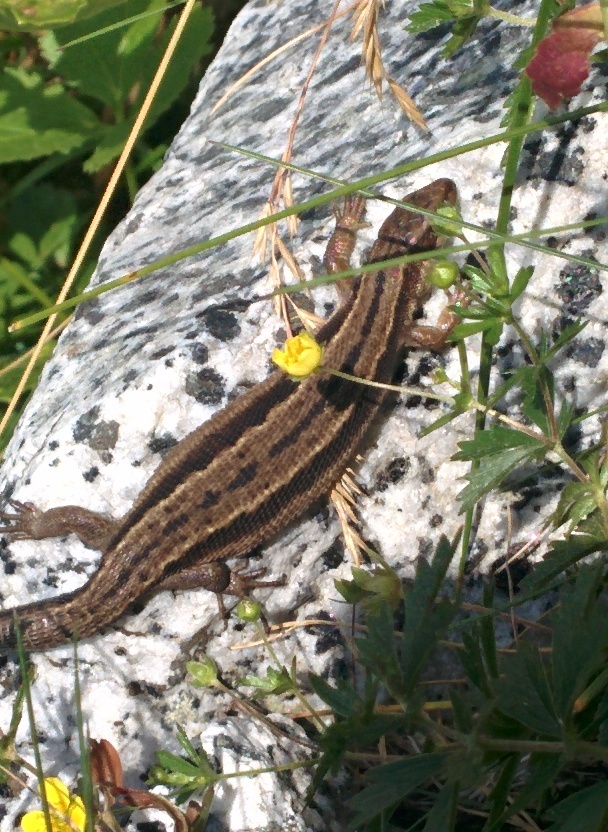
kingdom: Animalia
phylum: Chordata
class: Squamata
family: Lacertidae
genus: Zootoca
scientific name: Zootoca vivipara
